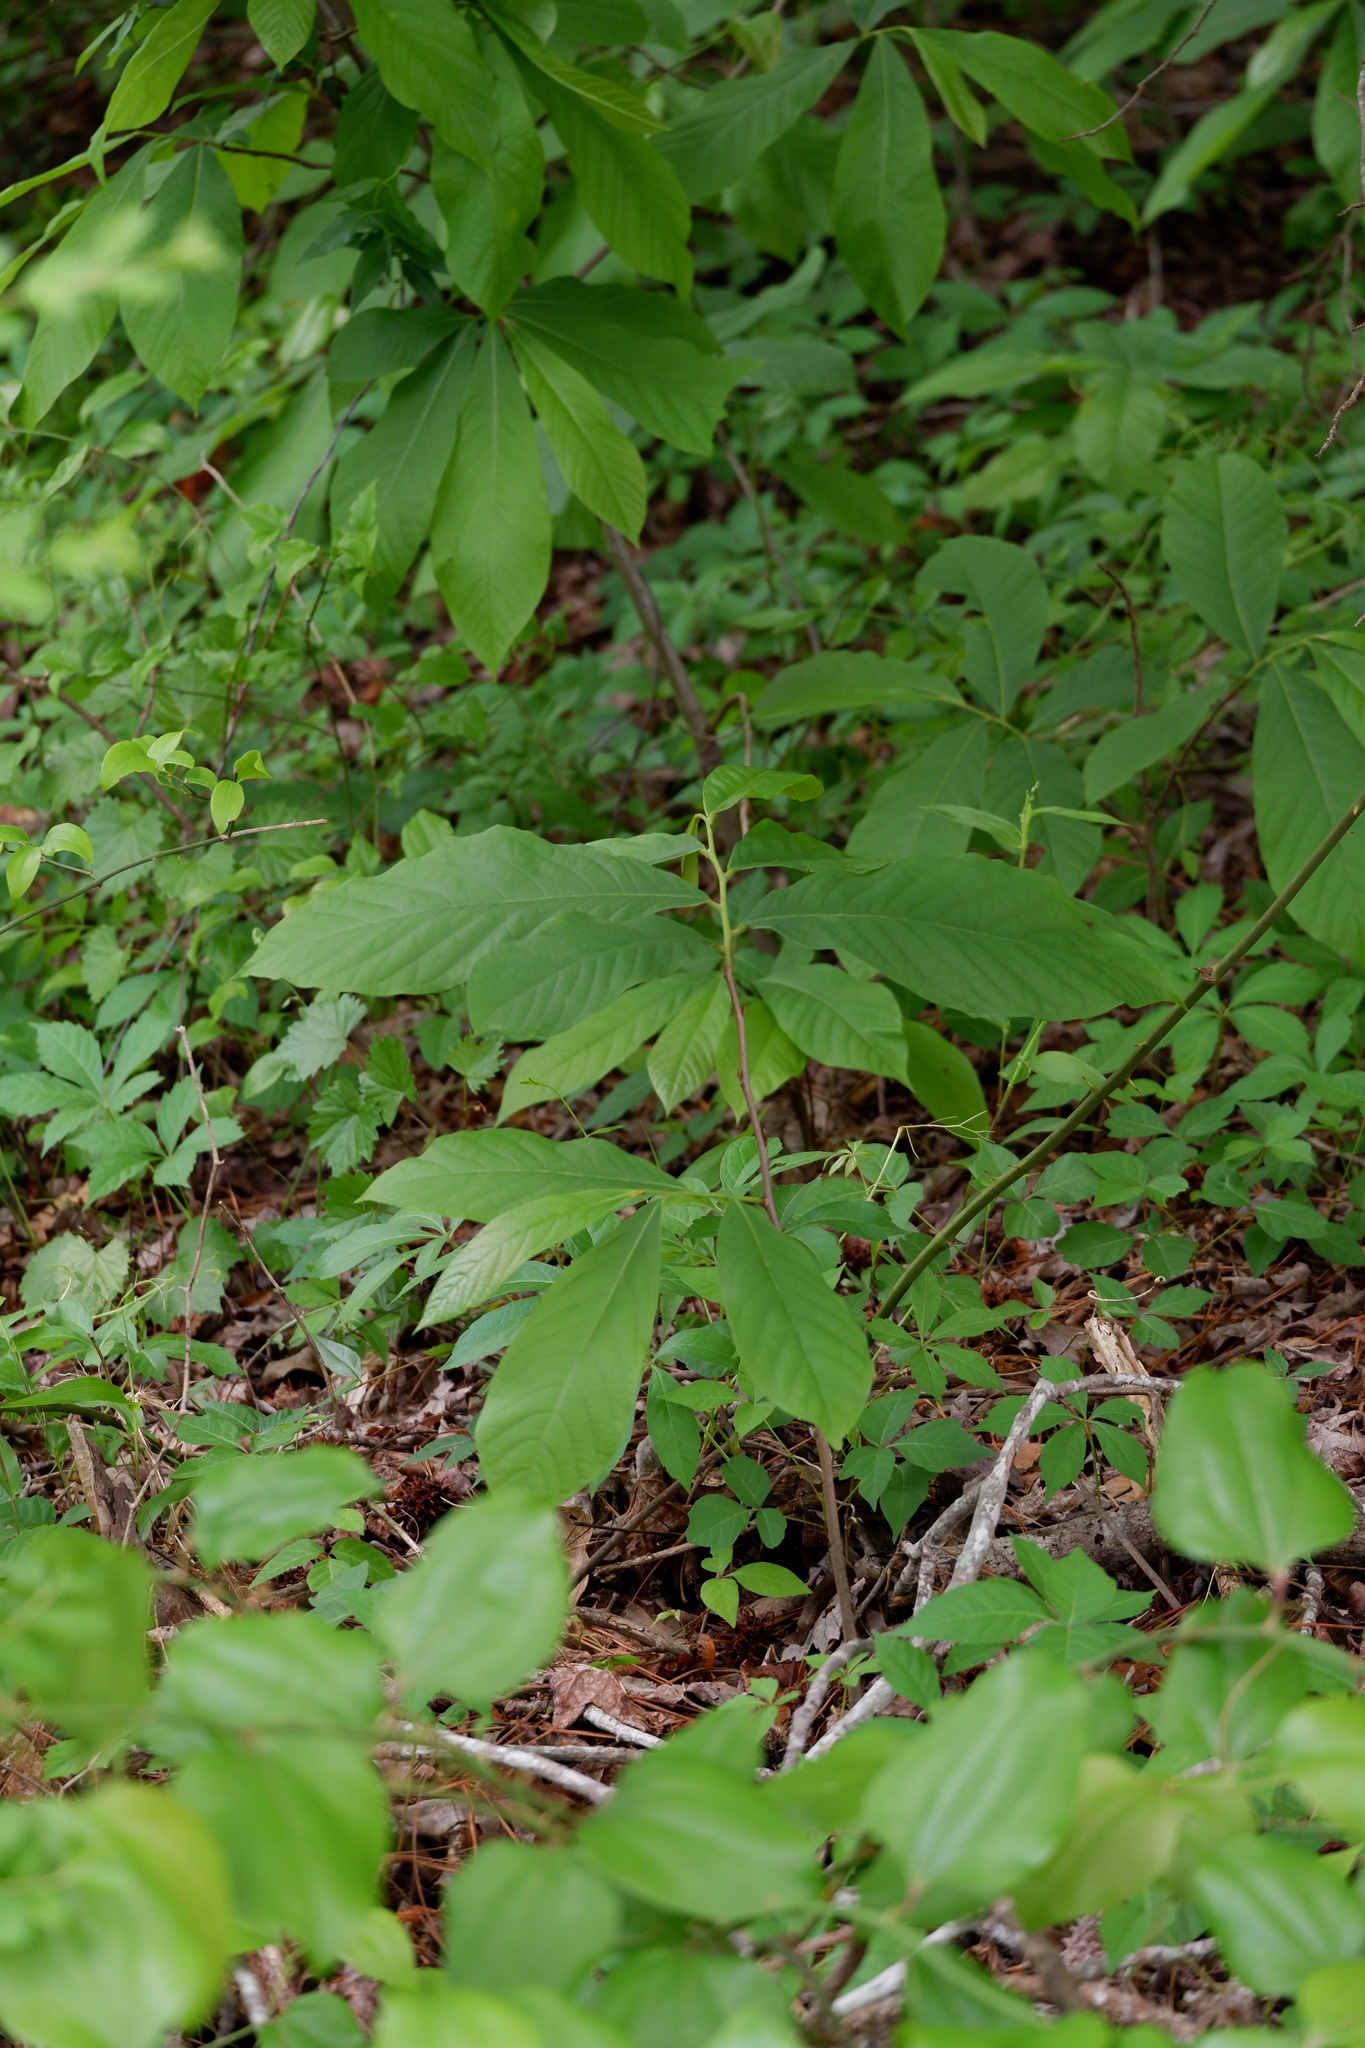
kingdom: Plantae
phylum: Tracheophyta
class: Magnoliopsida
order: Magnoliales
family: Annonaceae
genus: Asimina
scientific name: Asimina triloba
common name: Dog-banana
